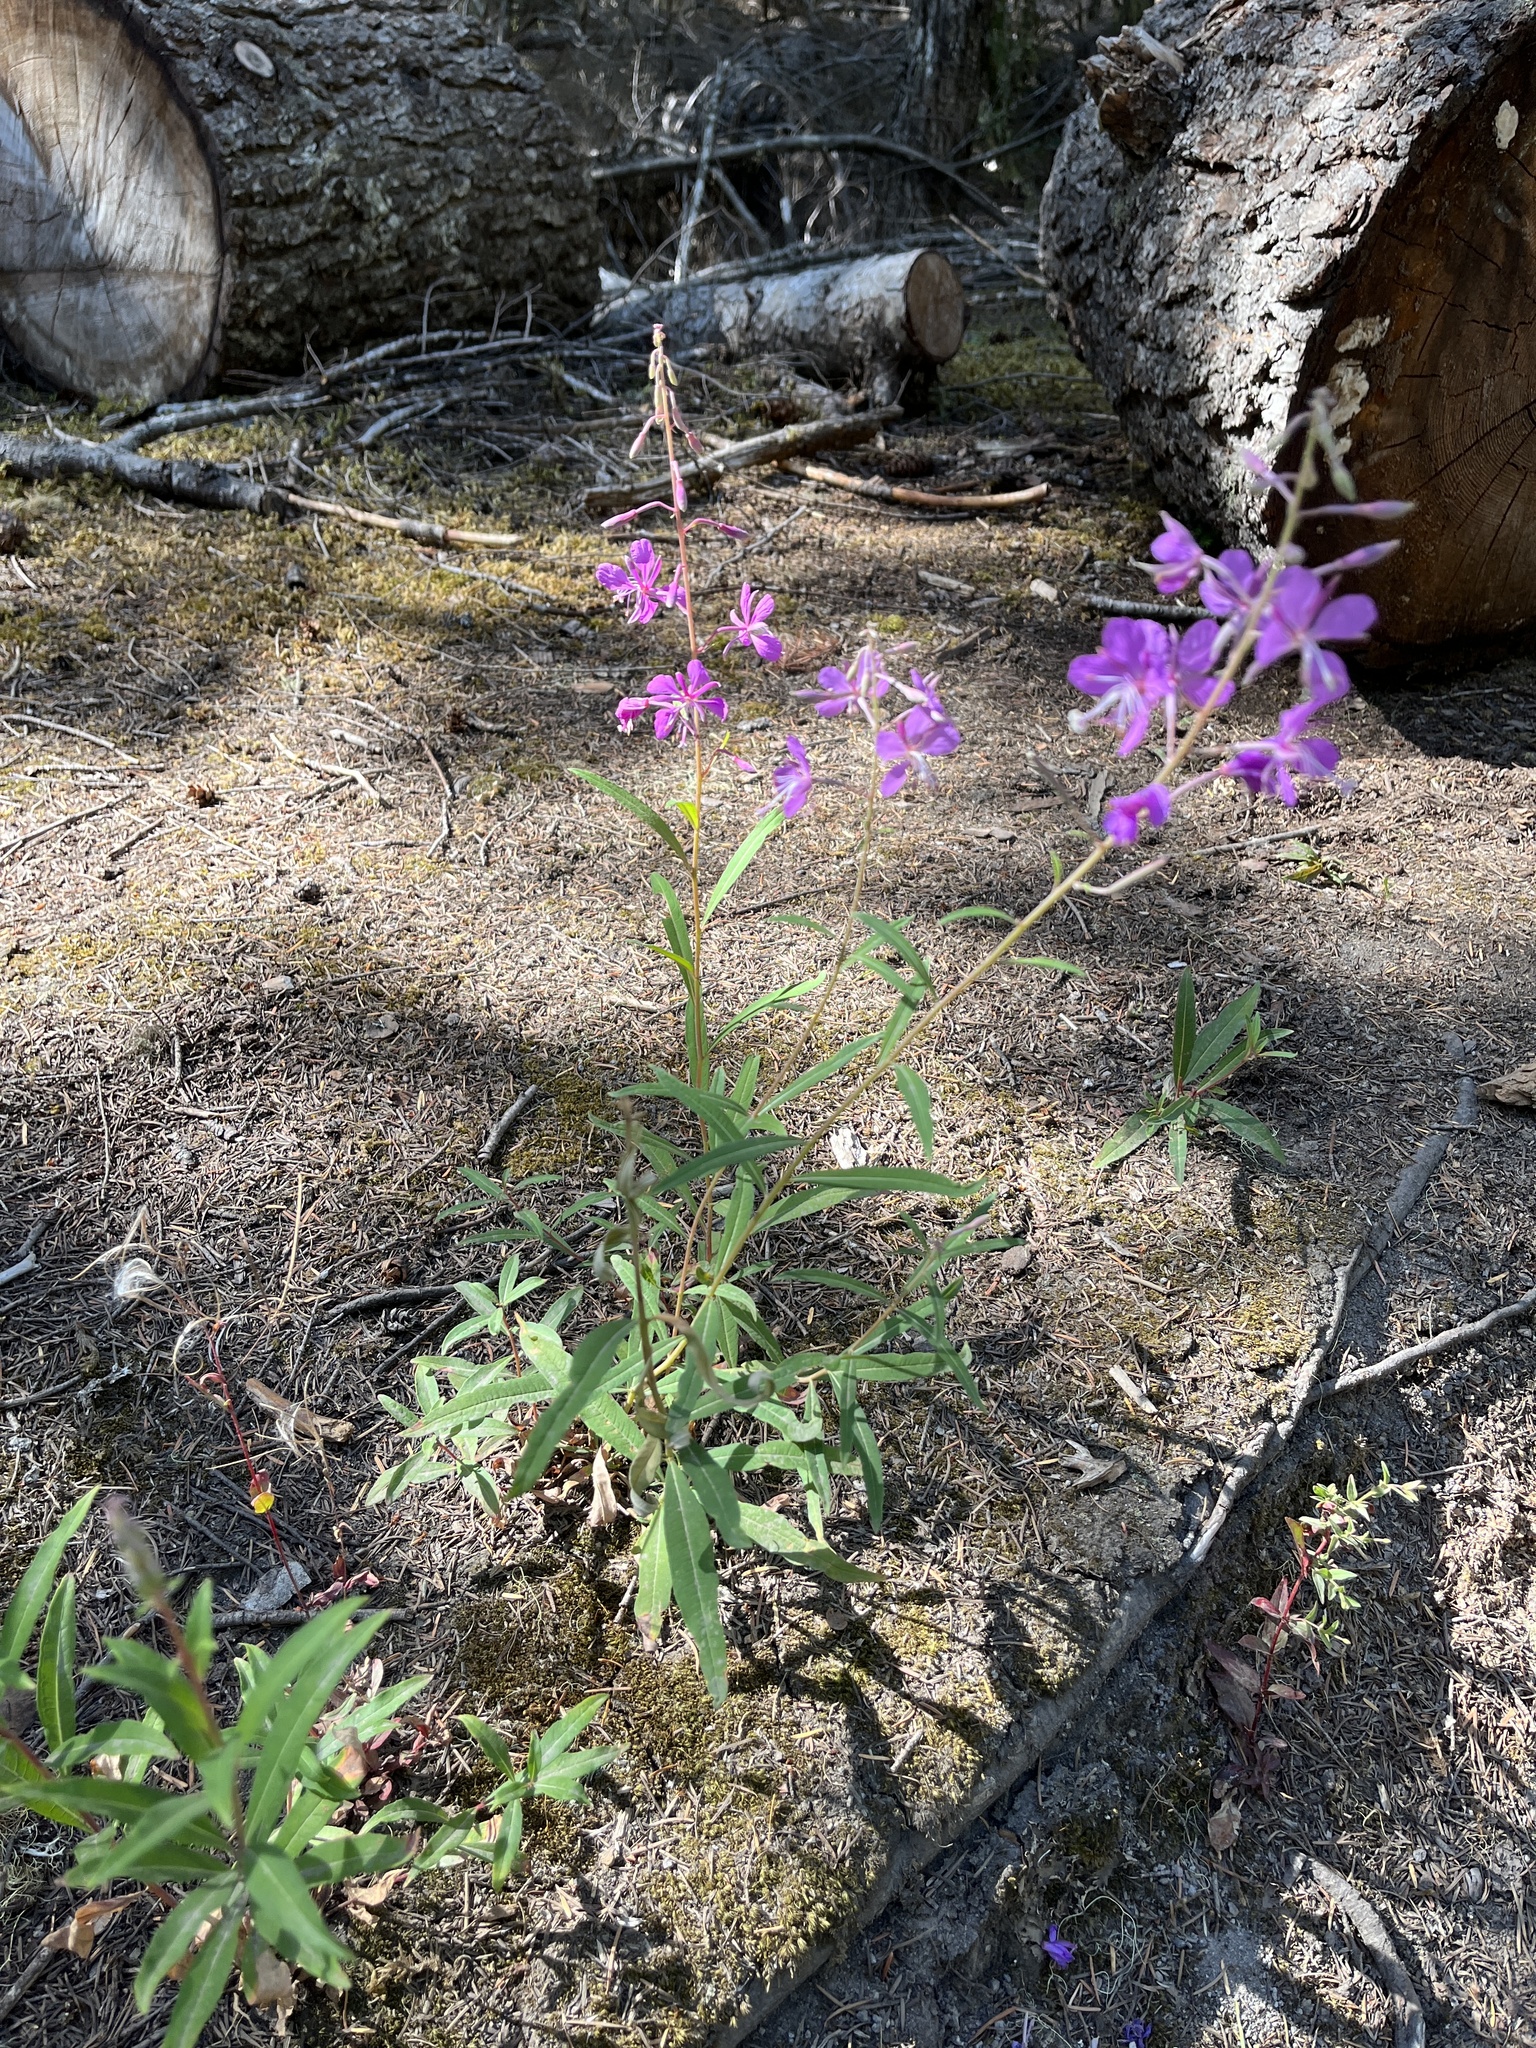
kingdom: Plantae
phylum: Tracheophyta
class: Magnoliopsida
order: Myrtales
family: Onagraceae
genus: Chamaenerion
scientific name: Chamaenerion angustifolium
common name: Fireweed
